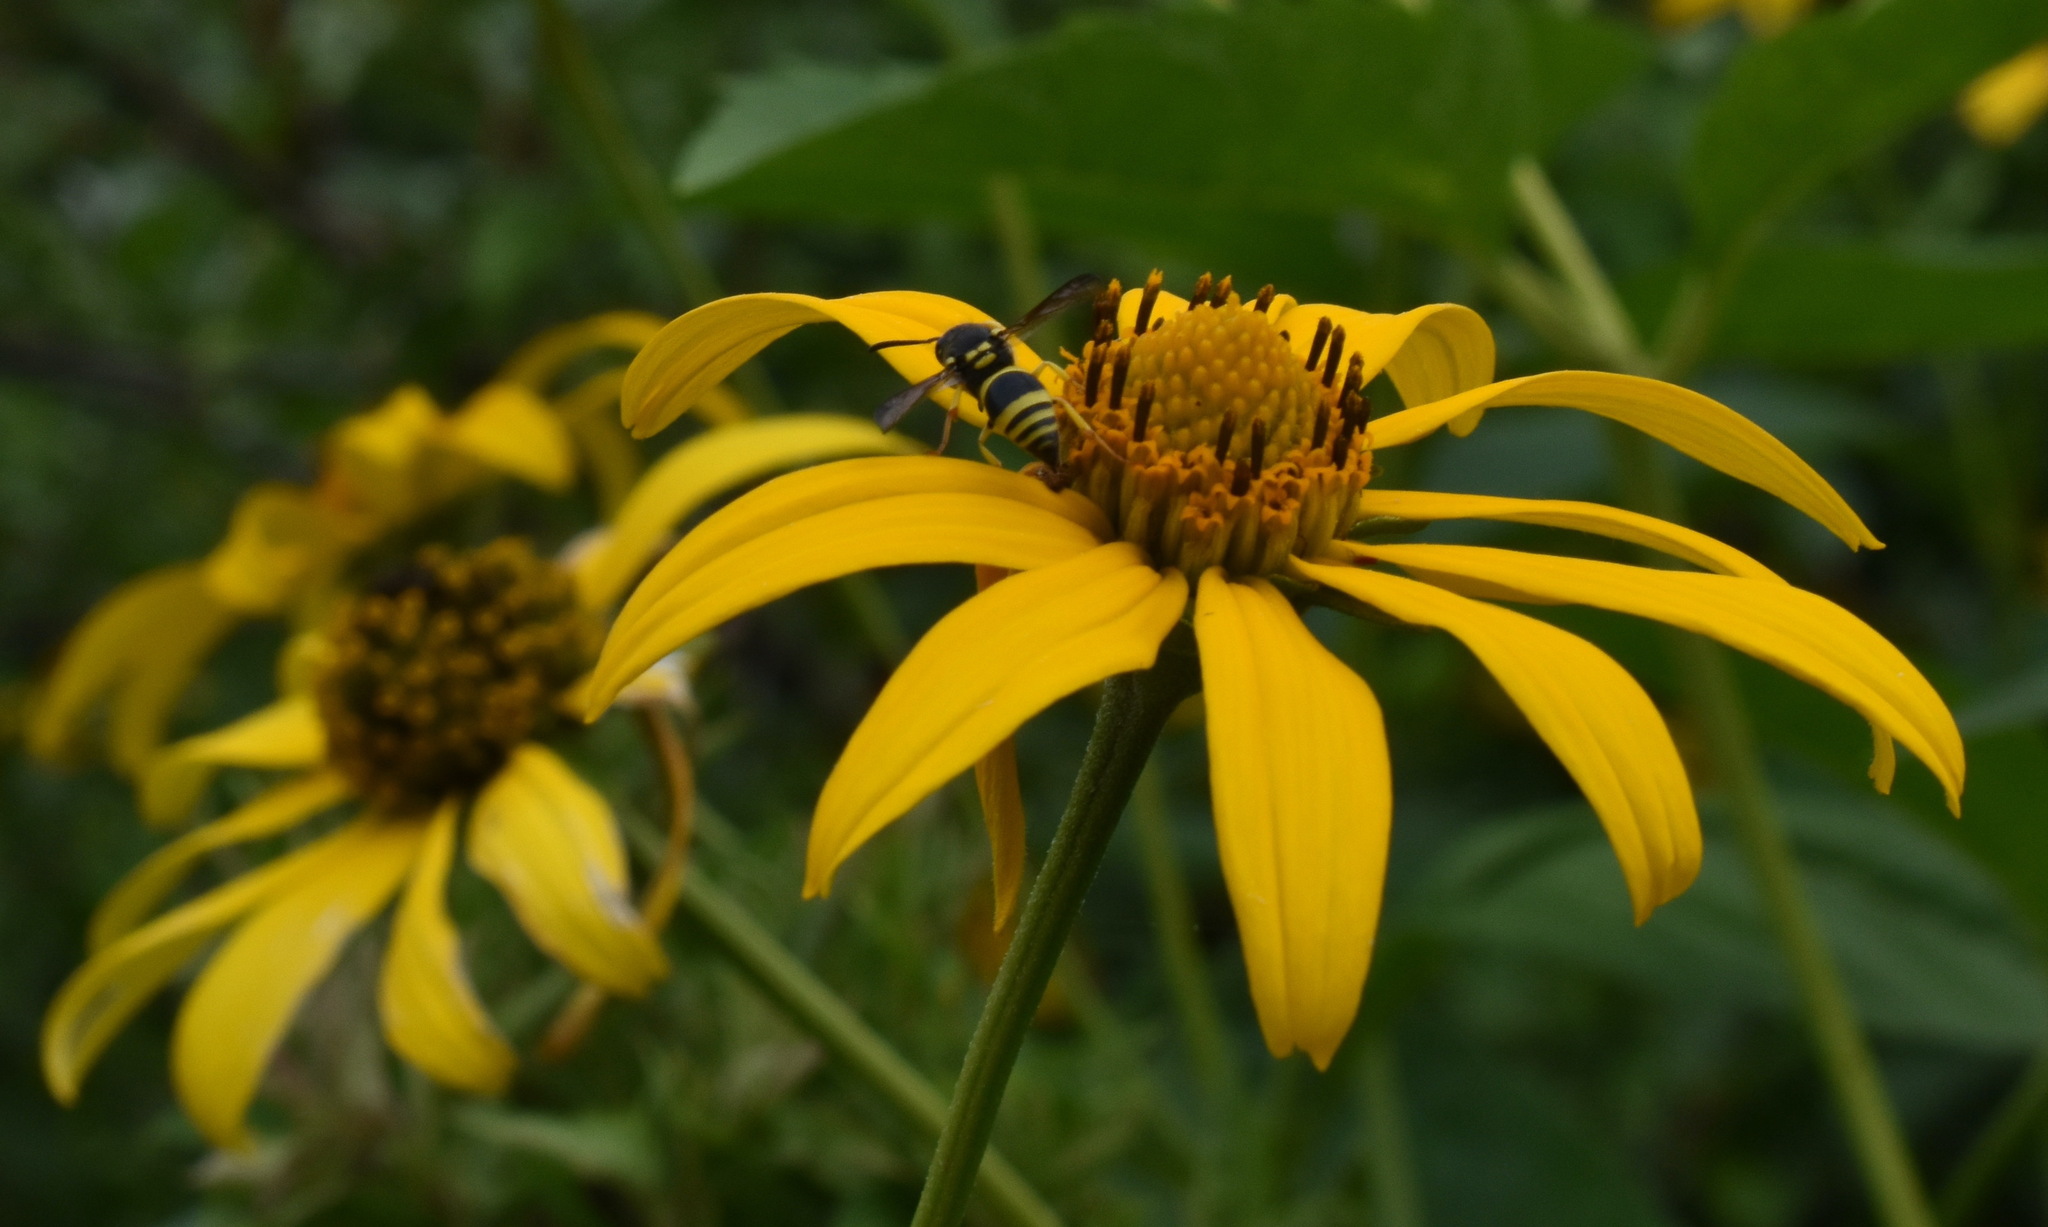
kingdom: Animalia
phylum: Arthropoda
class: Insecta
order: Hymenoptera
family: Vespidae
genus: Ancistrocerus
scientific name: Ancistrocerus gazella
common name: European tube wasp
